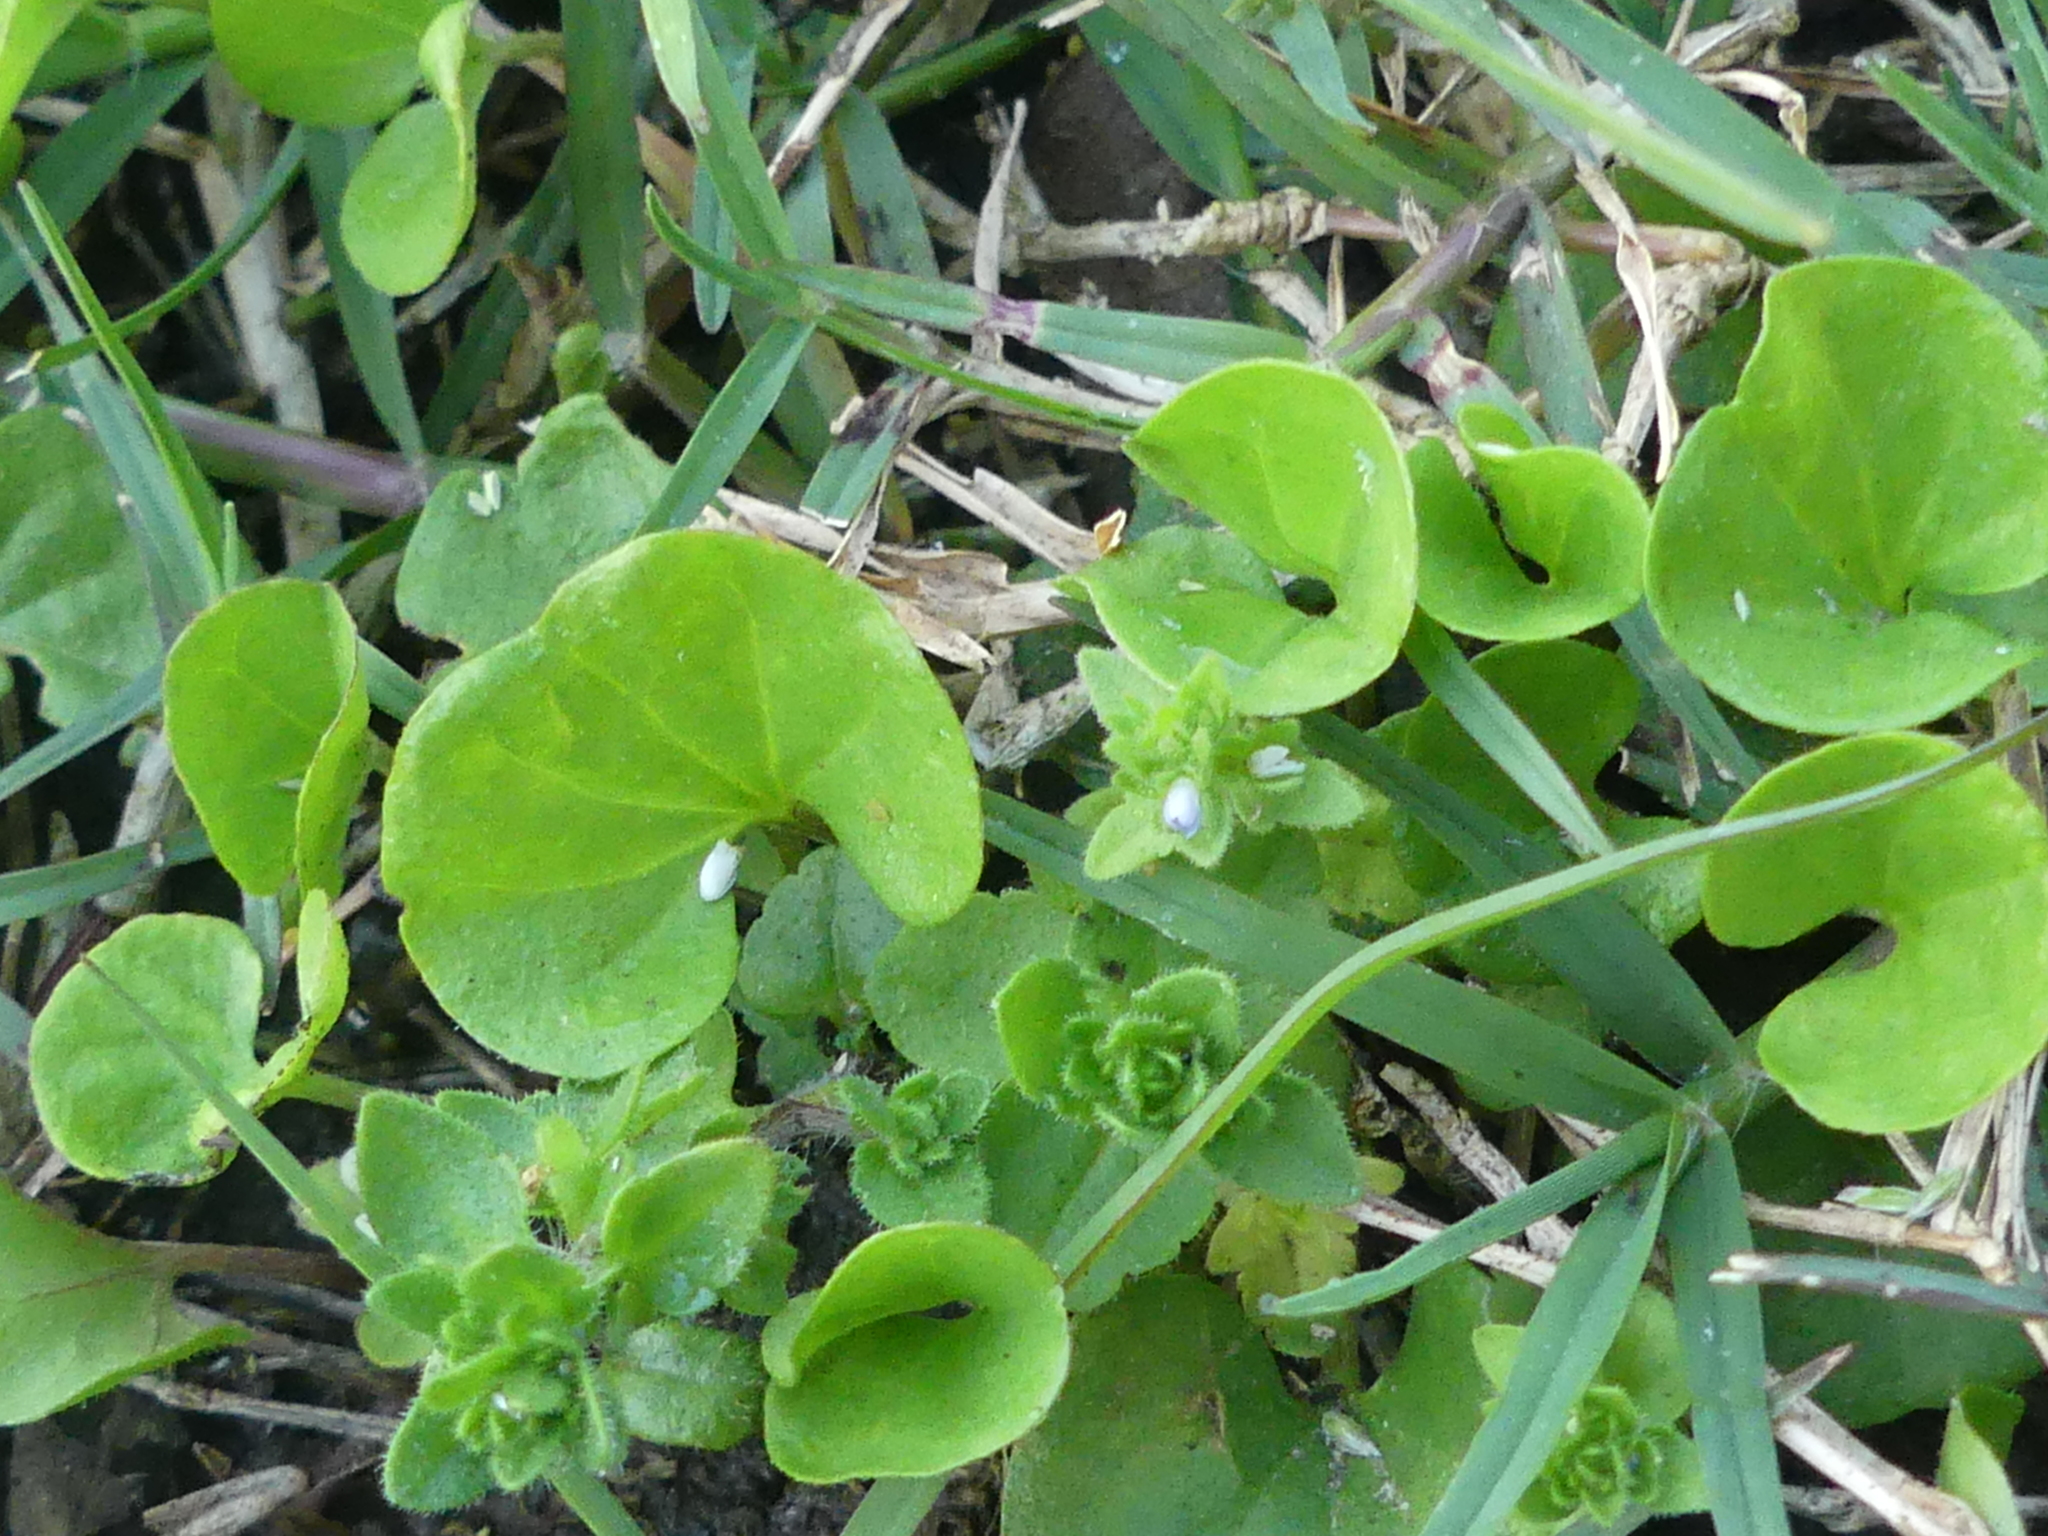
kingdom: Plantae
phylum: Tracheophyta
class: Magnoliopsida
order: Solanales
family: Convolvulaceae
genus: Dichondra
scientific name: Dichondra carolinensis
